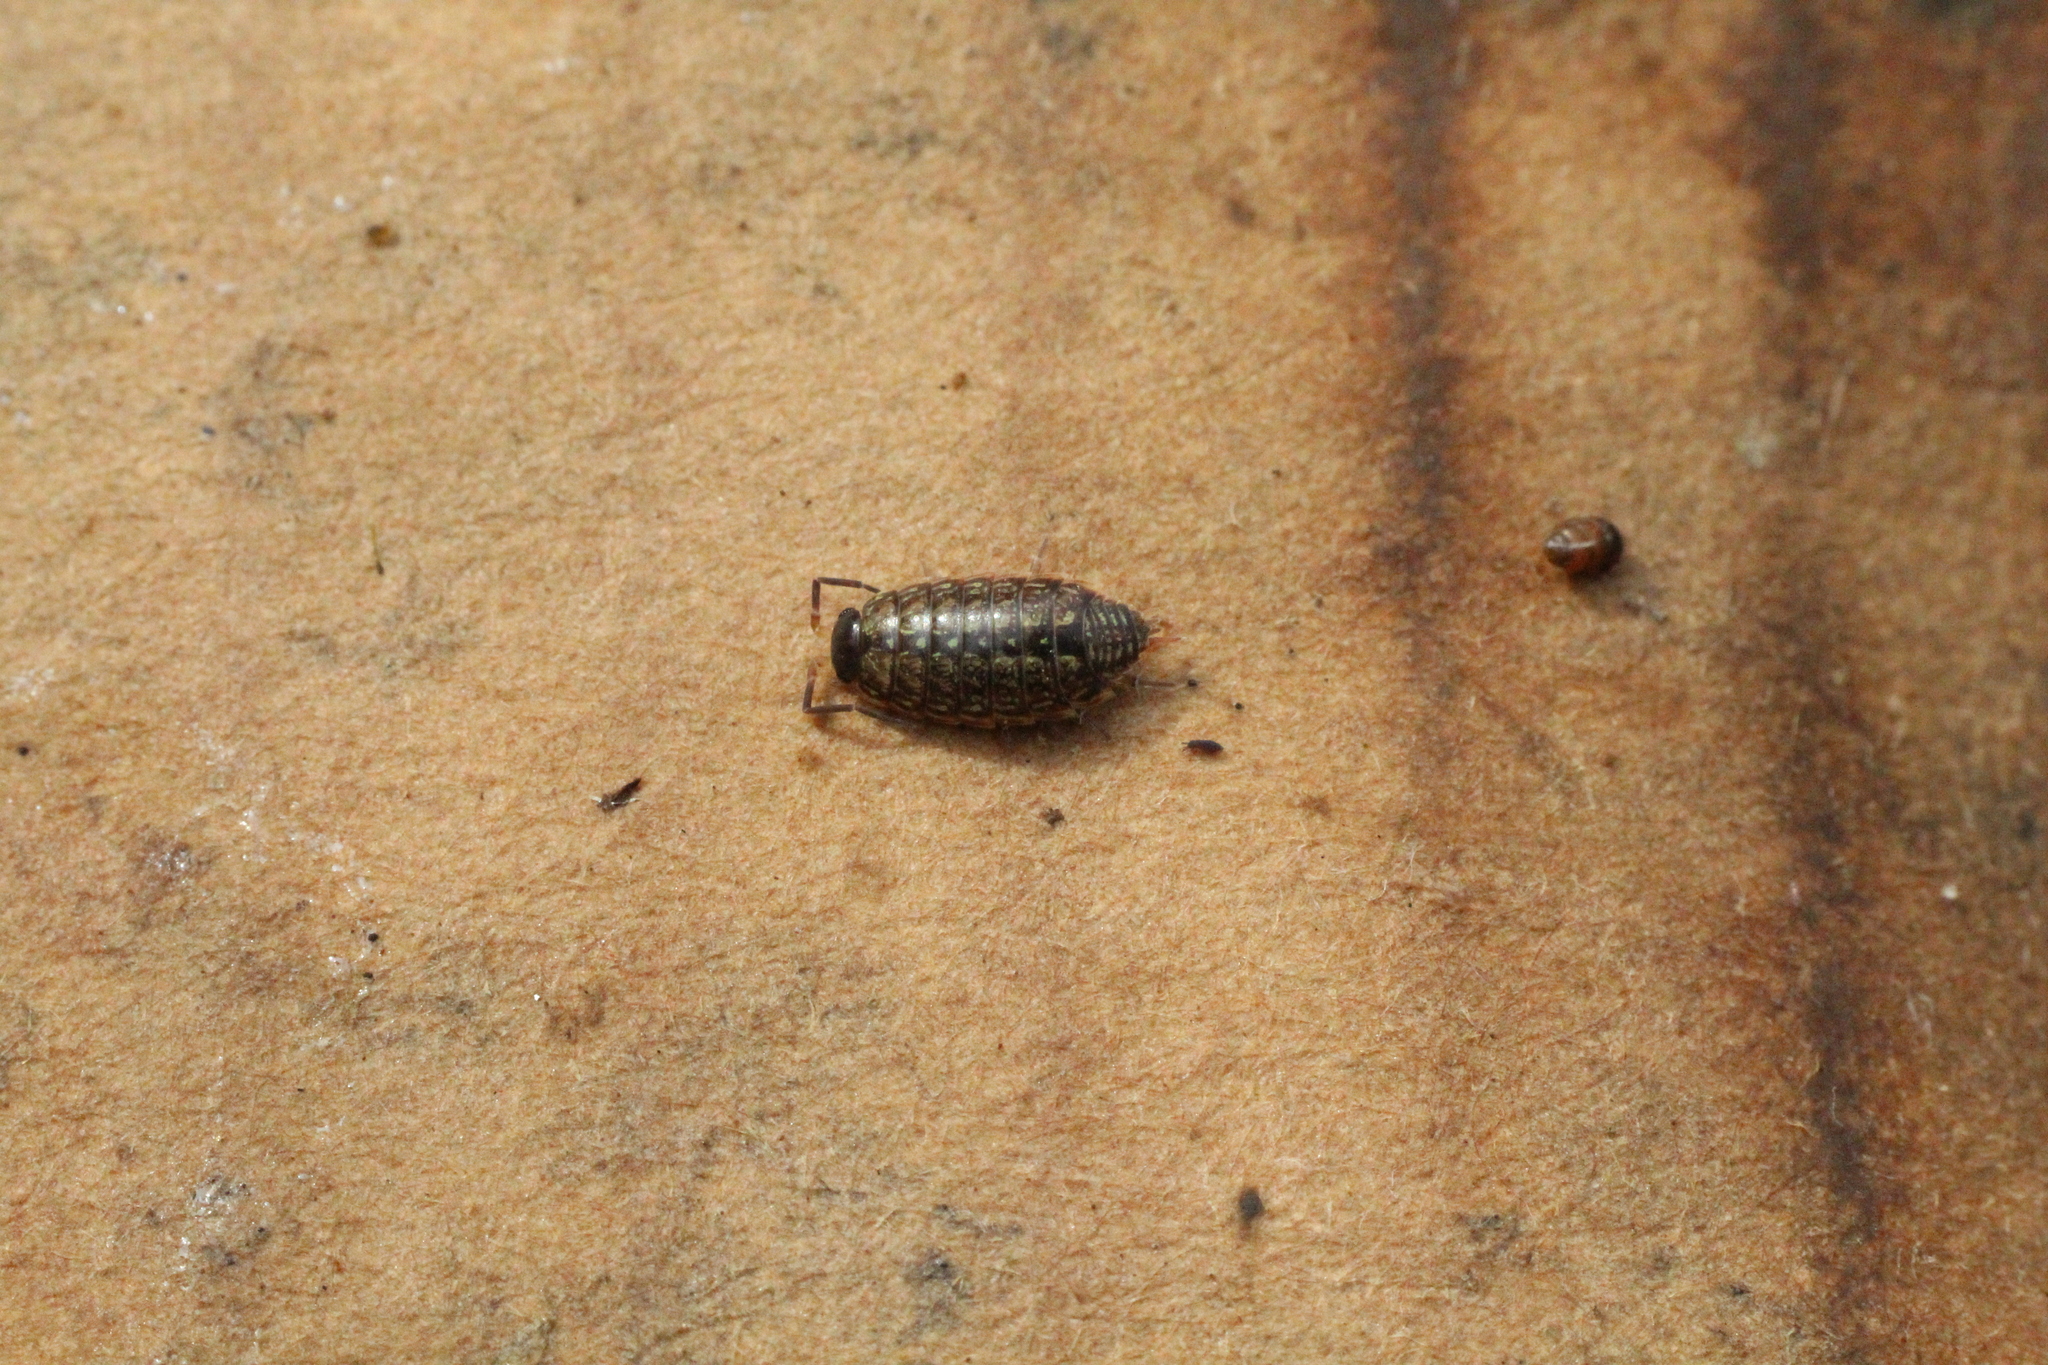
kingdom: Animalia
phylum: Arthropoda
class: Malacostraca
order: Isopoda
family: Philosciidae
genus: Philoscia
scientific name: Philoscia muscorum
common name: Common striped woodlouse
